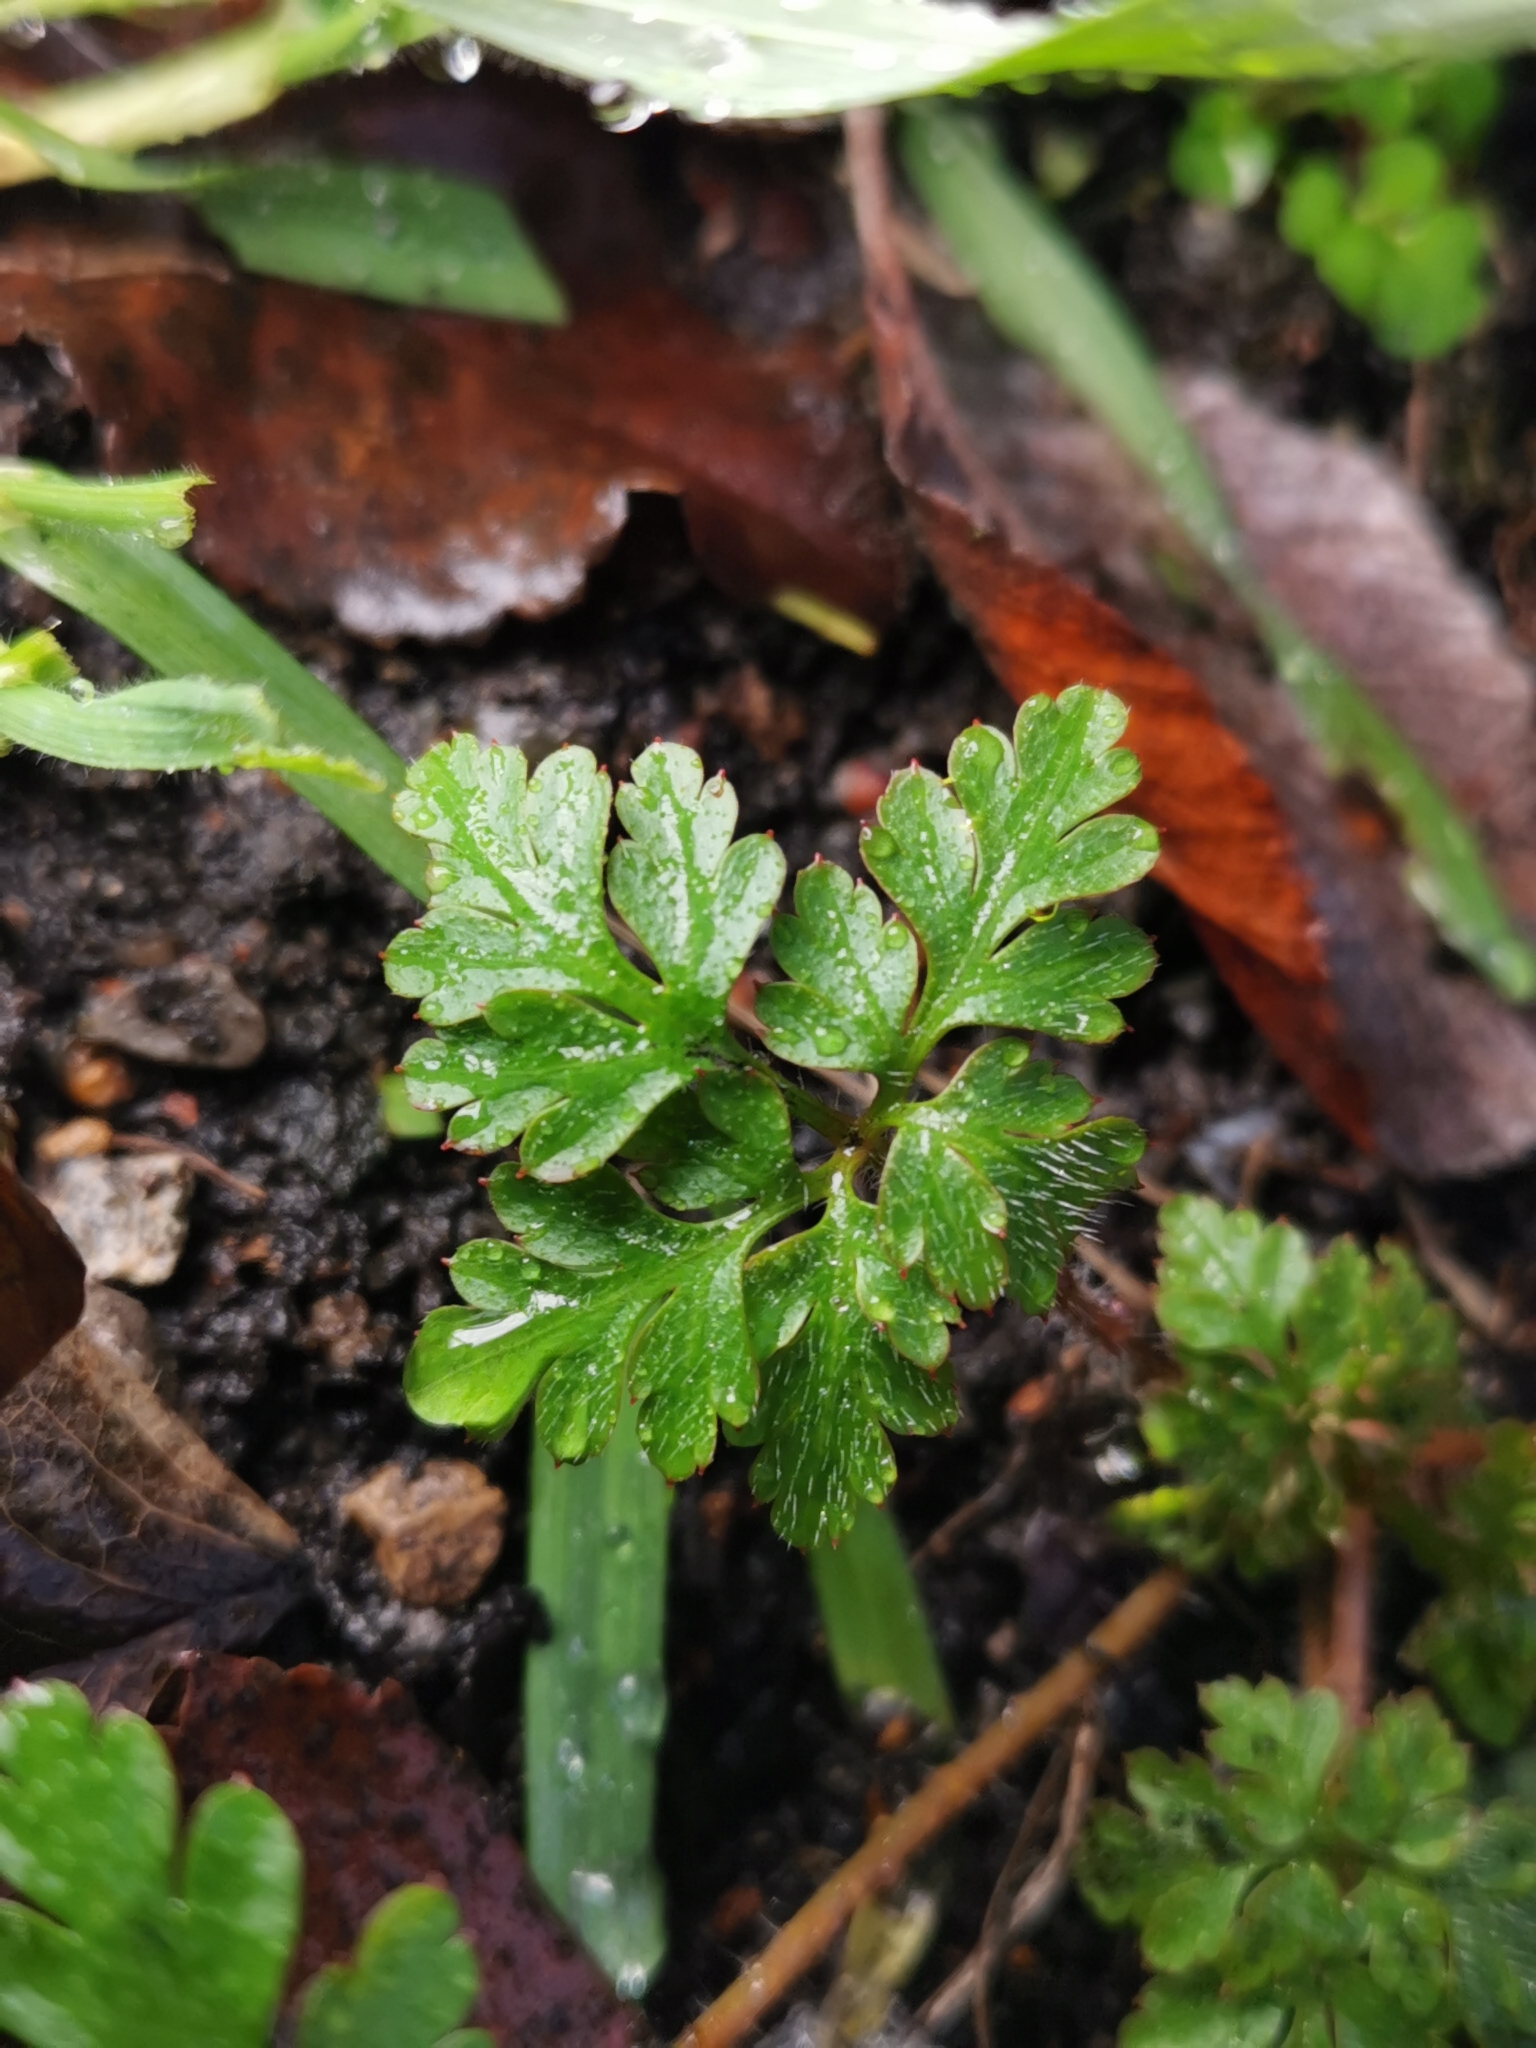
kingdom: Plantae
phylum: Tracheophyta
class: Magnoliopsida
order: Geraniales
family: Geraniaceae
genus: Geranium
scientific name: Geranium robertianum
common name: Herb-robert
